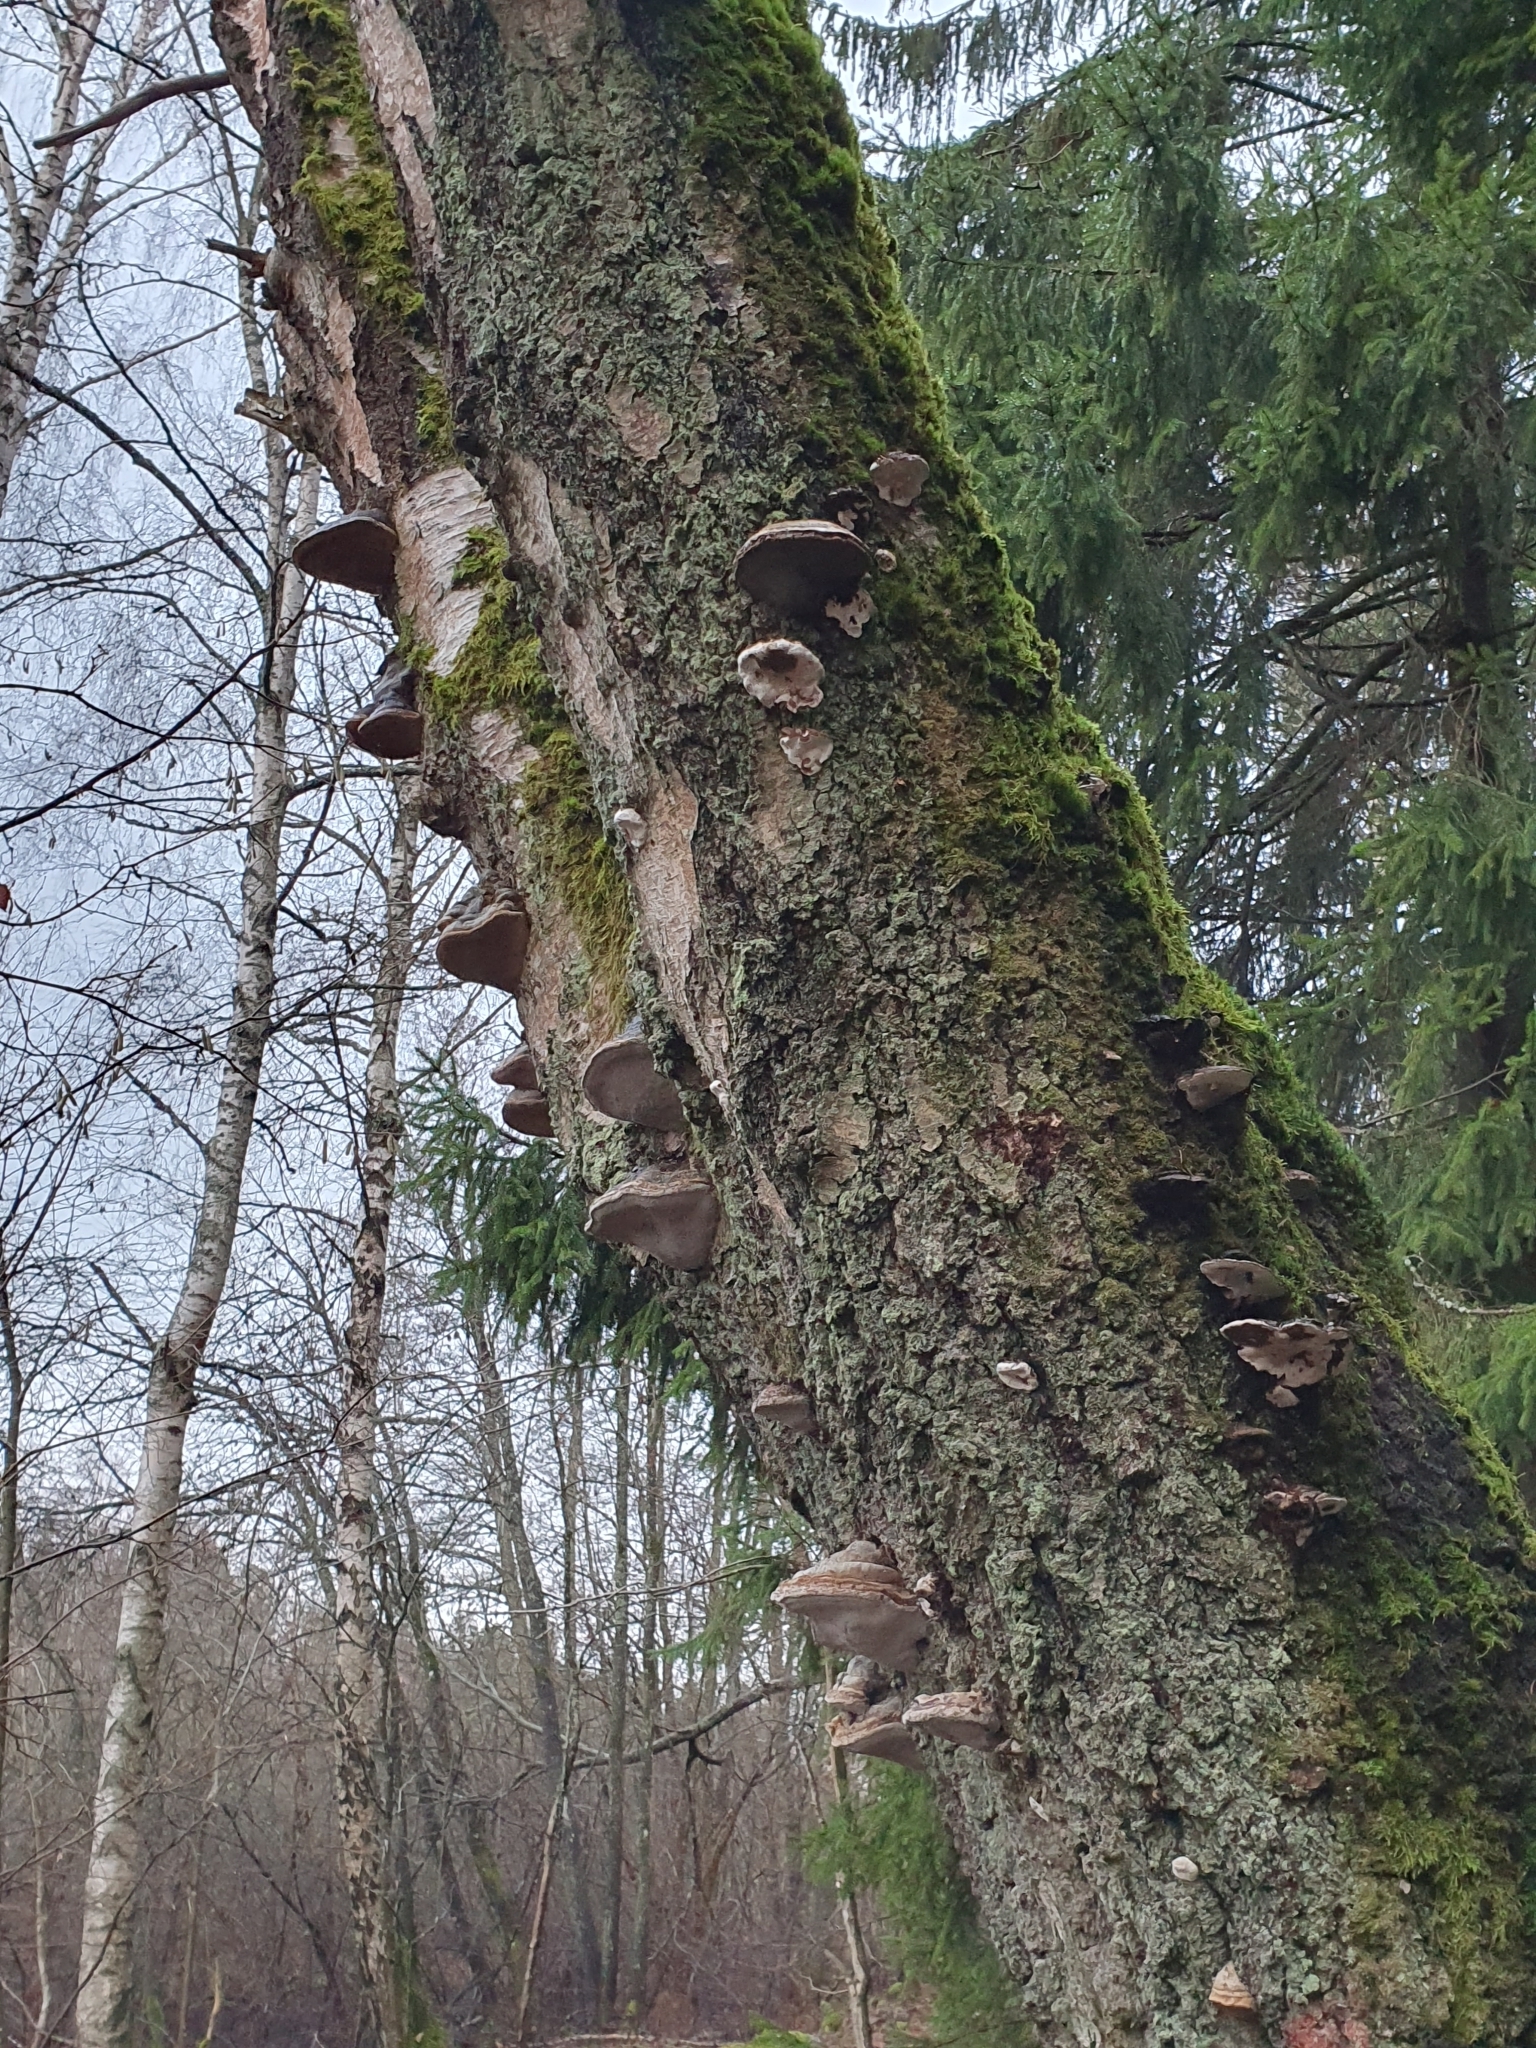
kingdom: Fungi
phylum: Basidiomycota
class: Agaricomycetes
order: Polyporales
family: Polyporaceae
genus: Fomes
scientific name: Fomes fomentarius
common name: Hoof fungus
